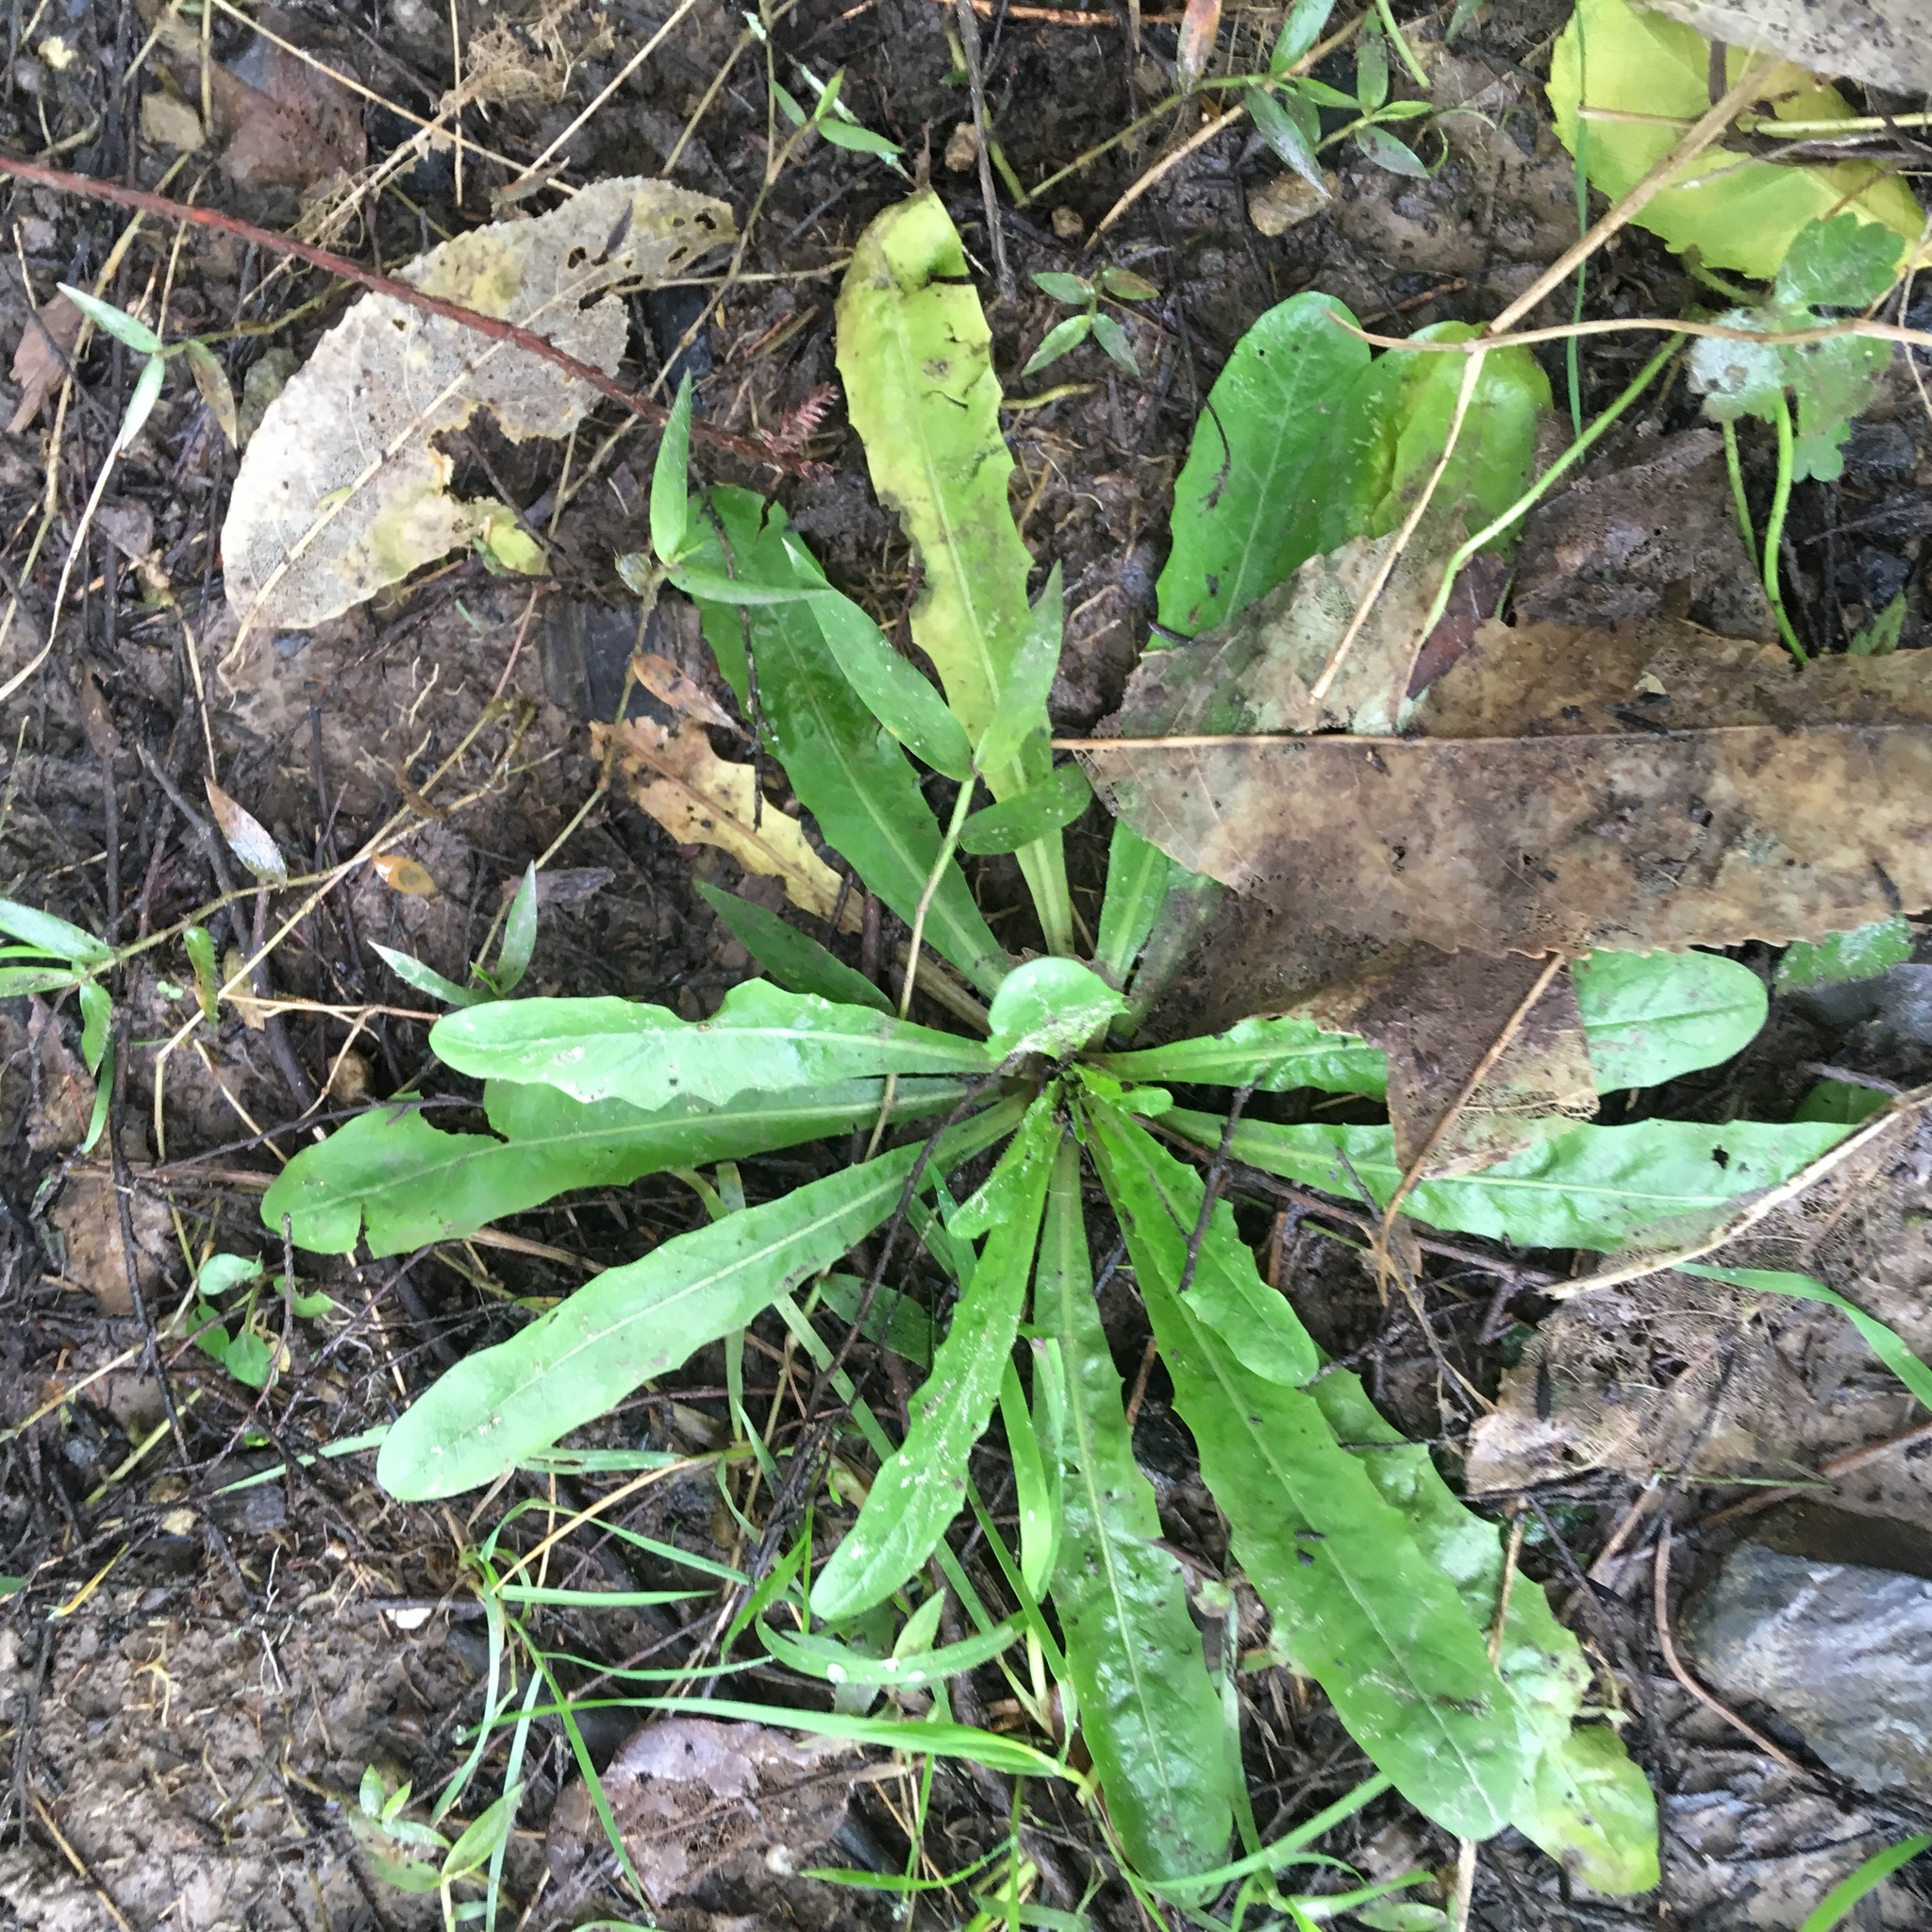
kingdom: Plantae
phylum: Tracheophyta
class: Magnoliopsida
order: Asterales
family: Asteraceae
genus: Hypochaeris
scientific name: Hypochaeris radicata
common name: Flatweed
